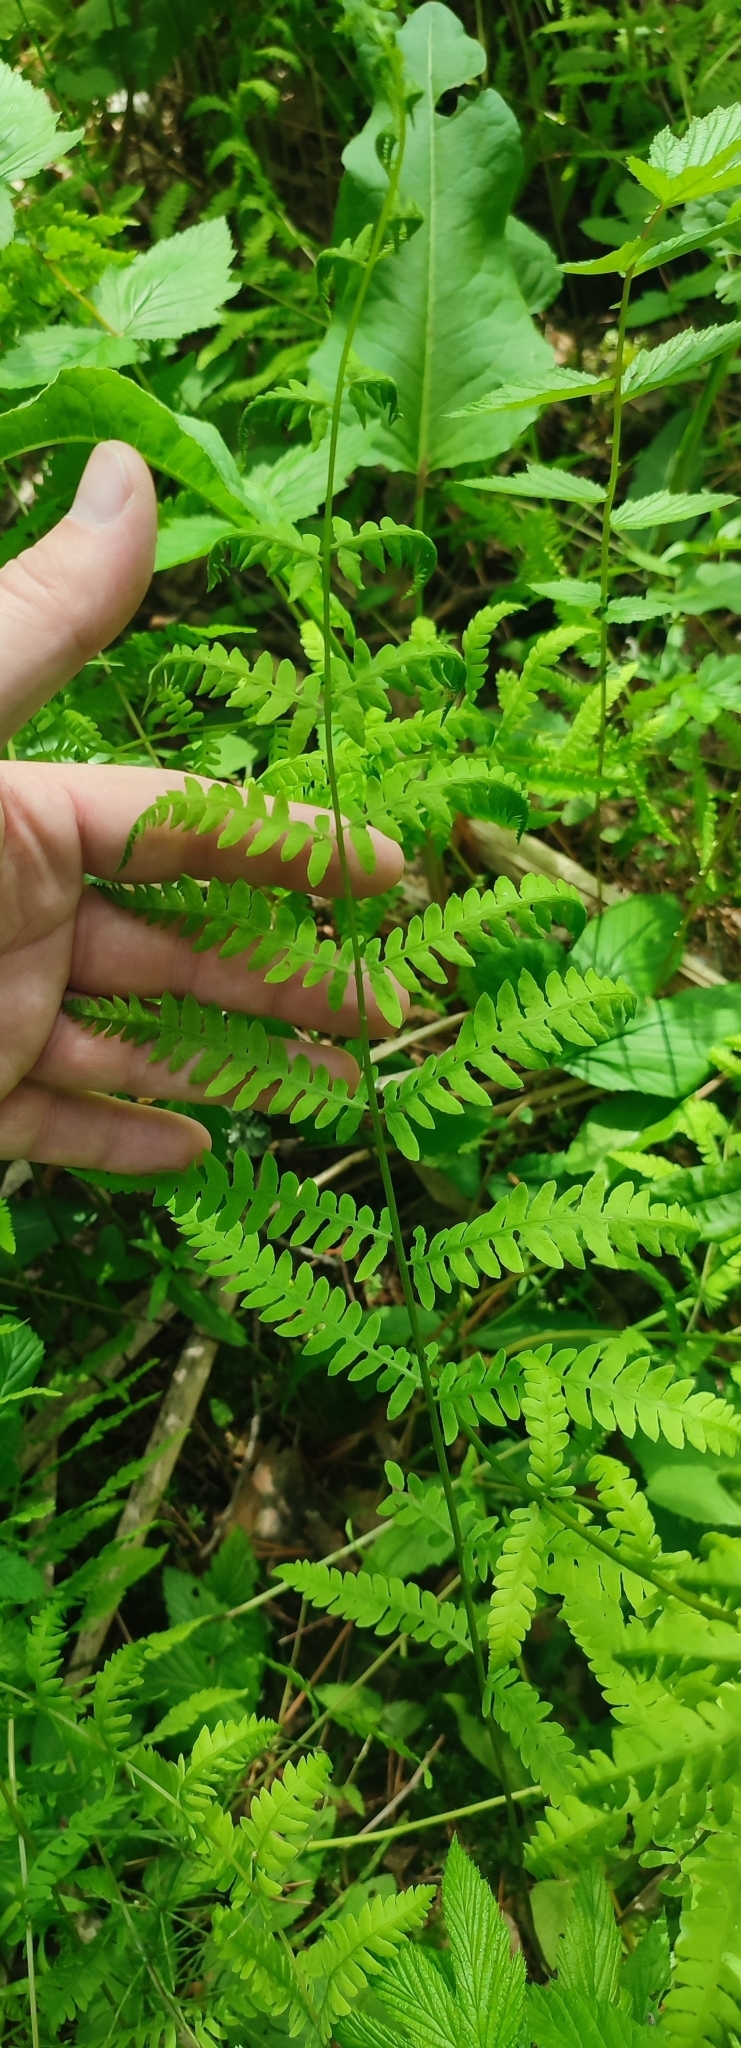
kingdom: Plantae
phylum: Tracheophyta
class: Polypodiopsida
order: Polypodiales
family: Thelypteridaceae
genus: Thelypteris
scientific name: Thelypteris palustris
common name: Marsh fern
